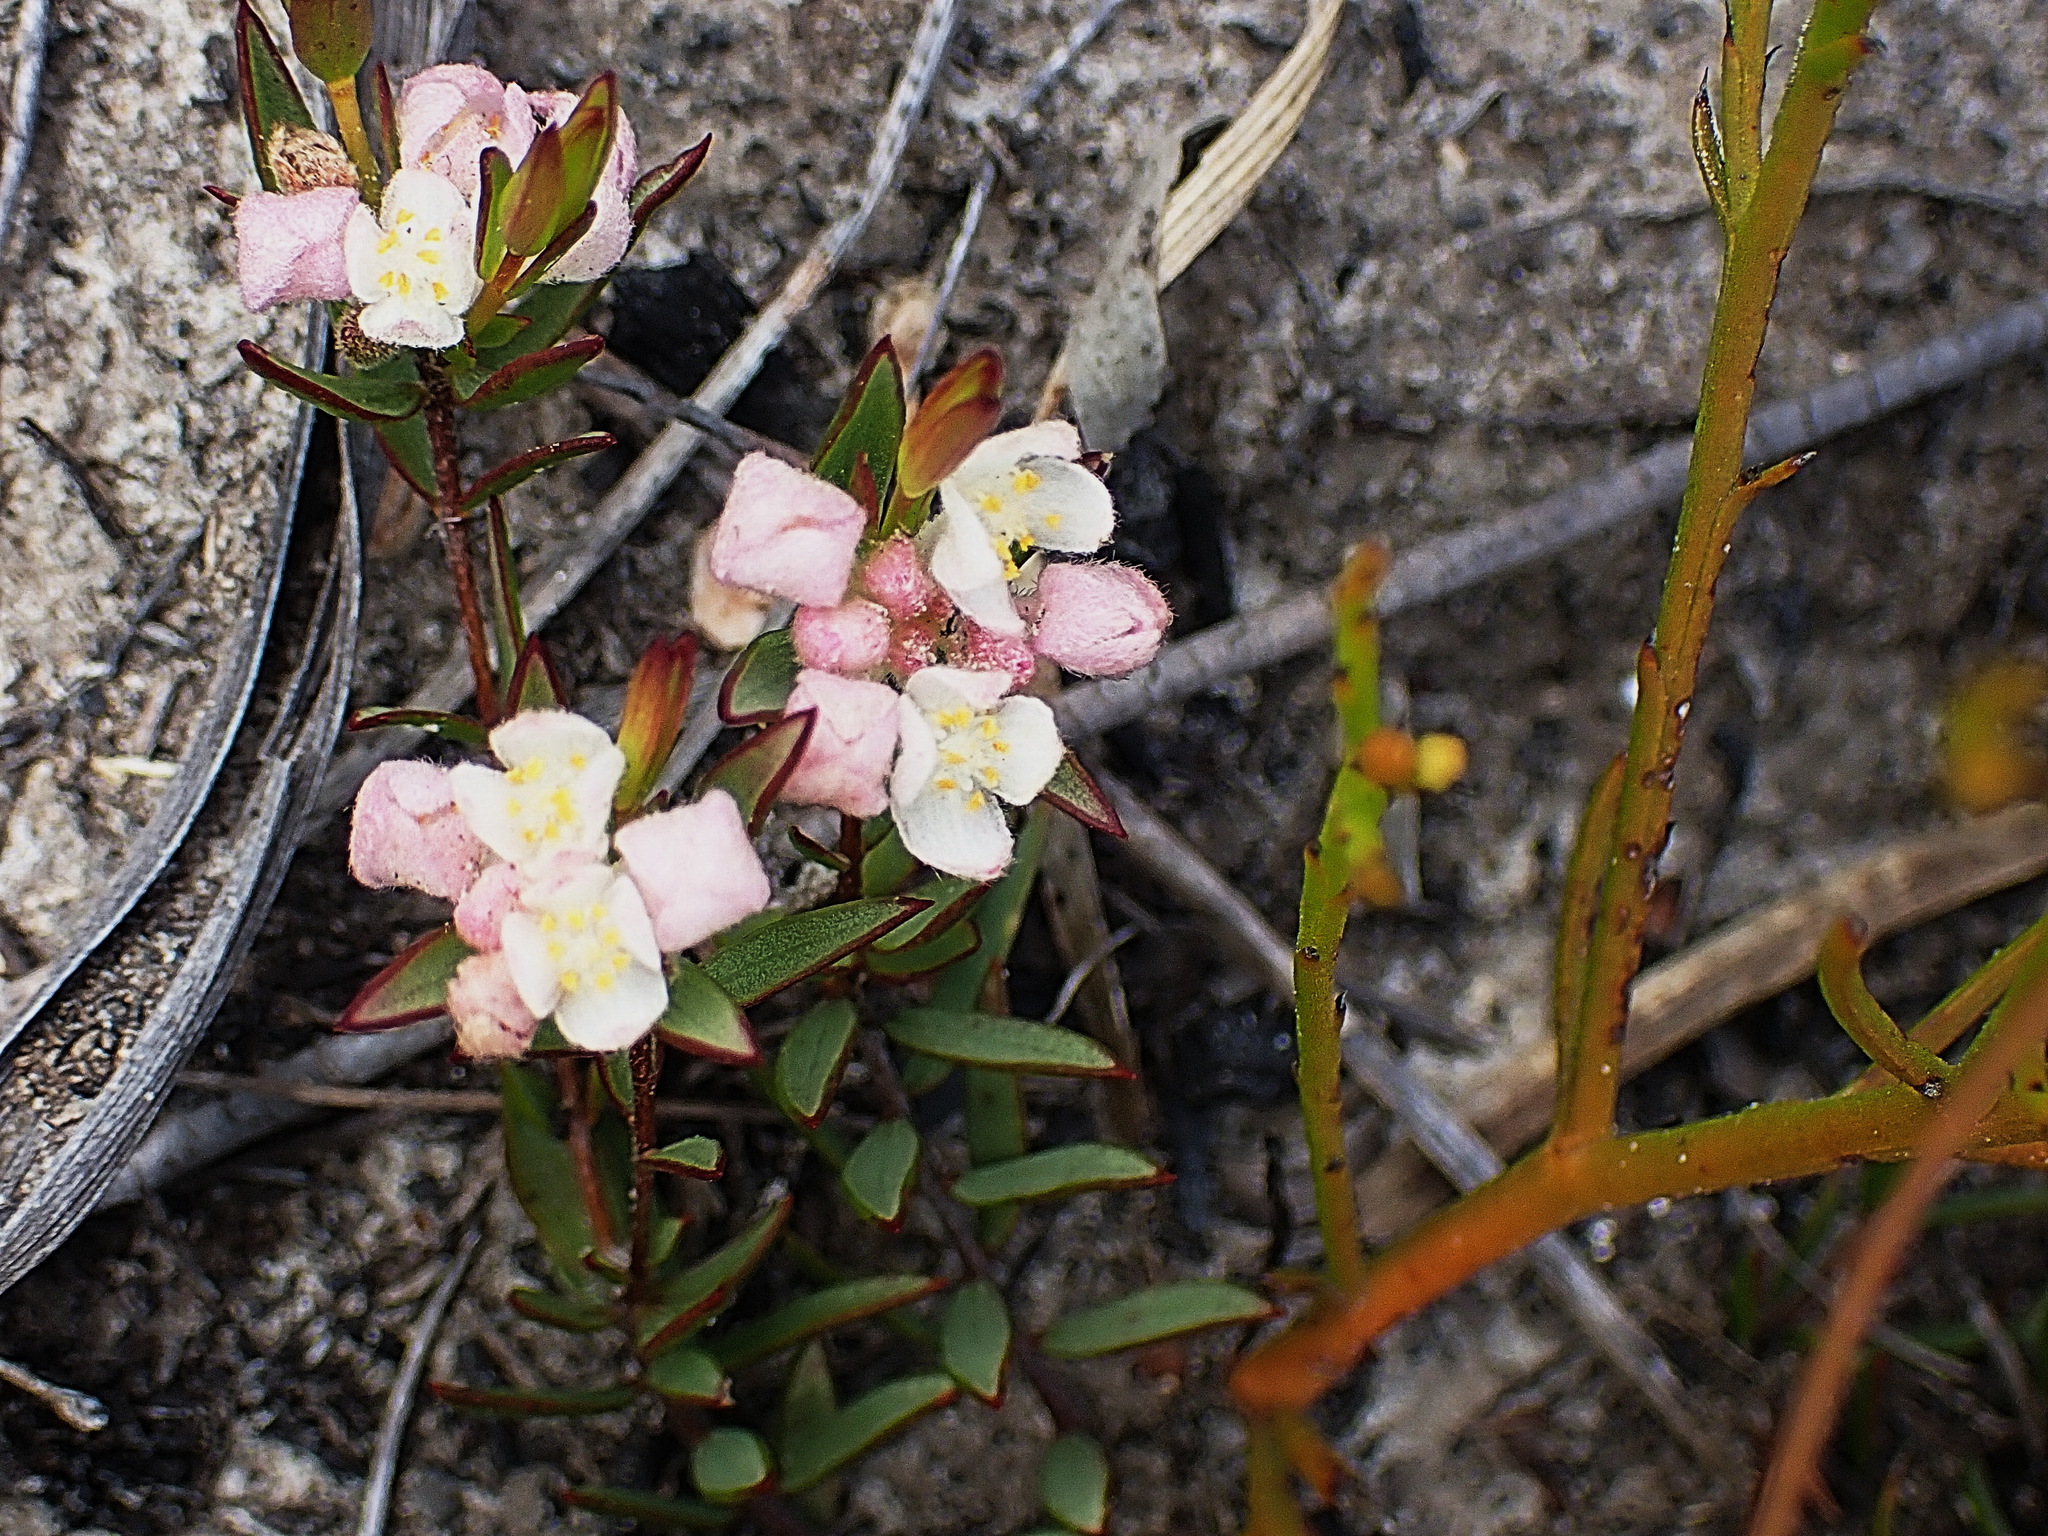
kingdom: Plantae
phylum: Tracheophyta
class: Magnoliopsida
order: Malvales
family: Thymelaeaceae
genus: Lachnaea
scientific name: Lachnaea burchellii
